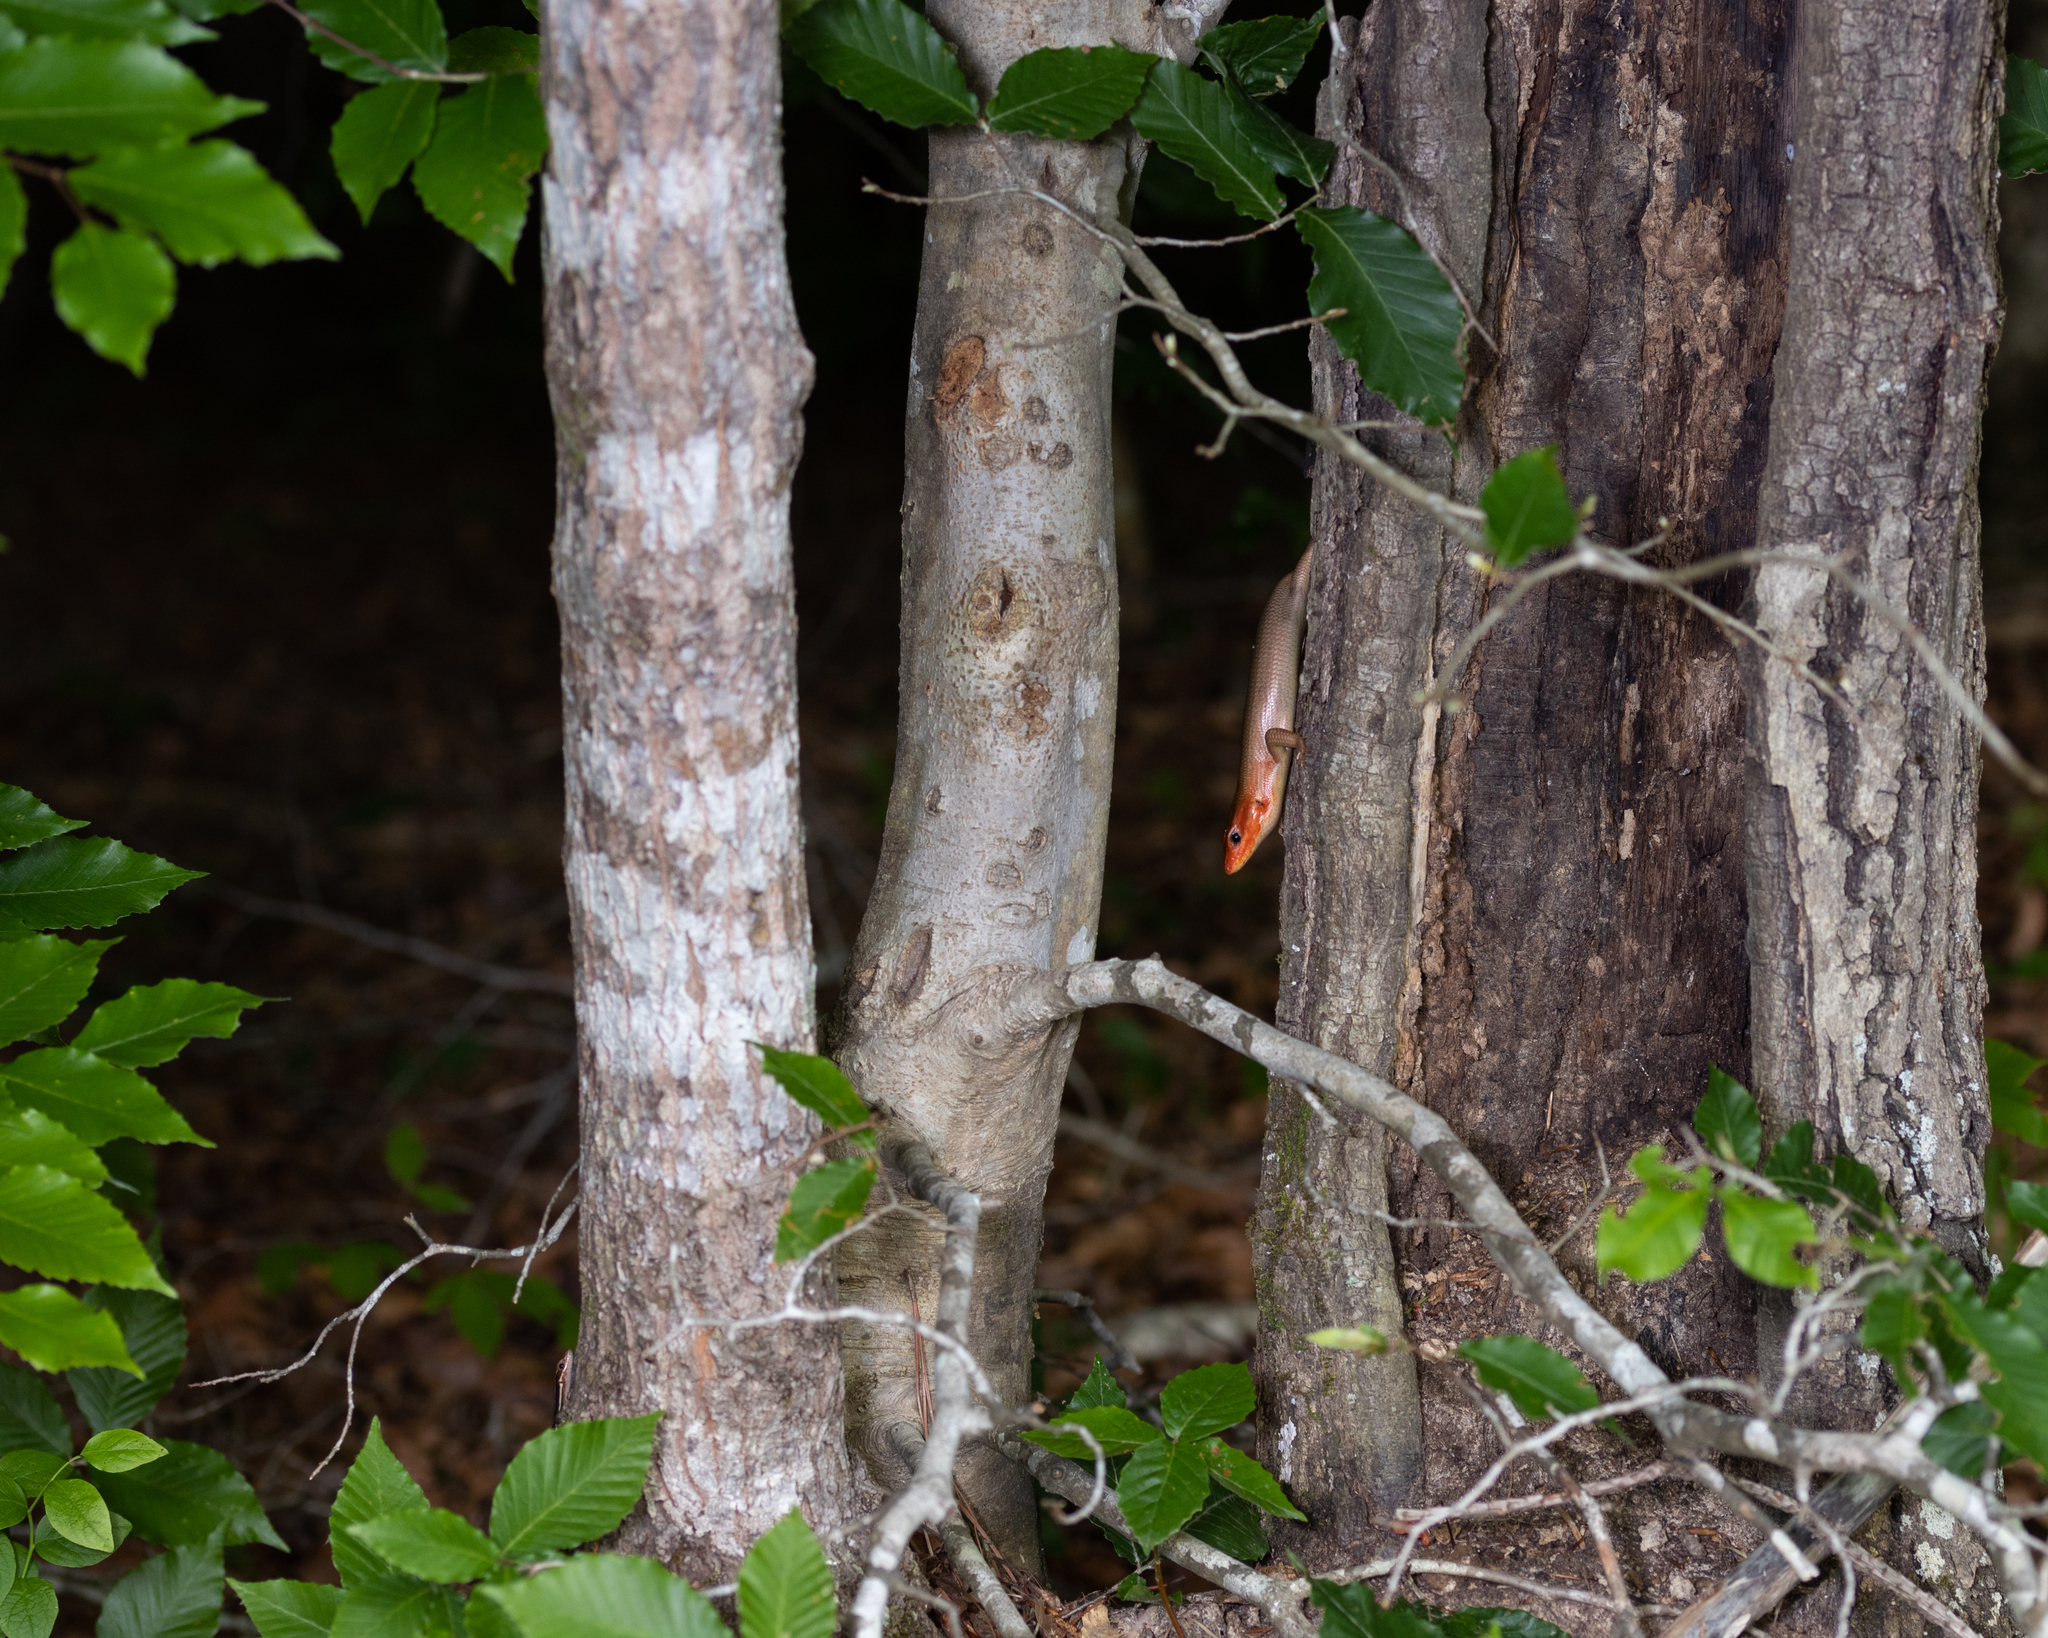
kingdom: Animalia
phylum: Chordata
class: Squamata
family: Scincidae
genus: Plestiodon
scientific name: Plestiodon laticeps
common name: Broadhead skink
